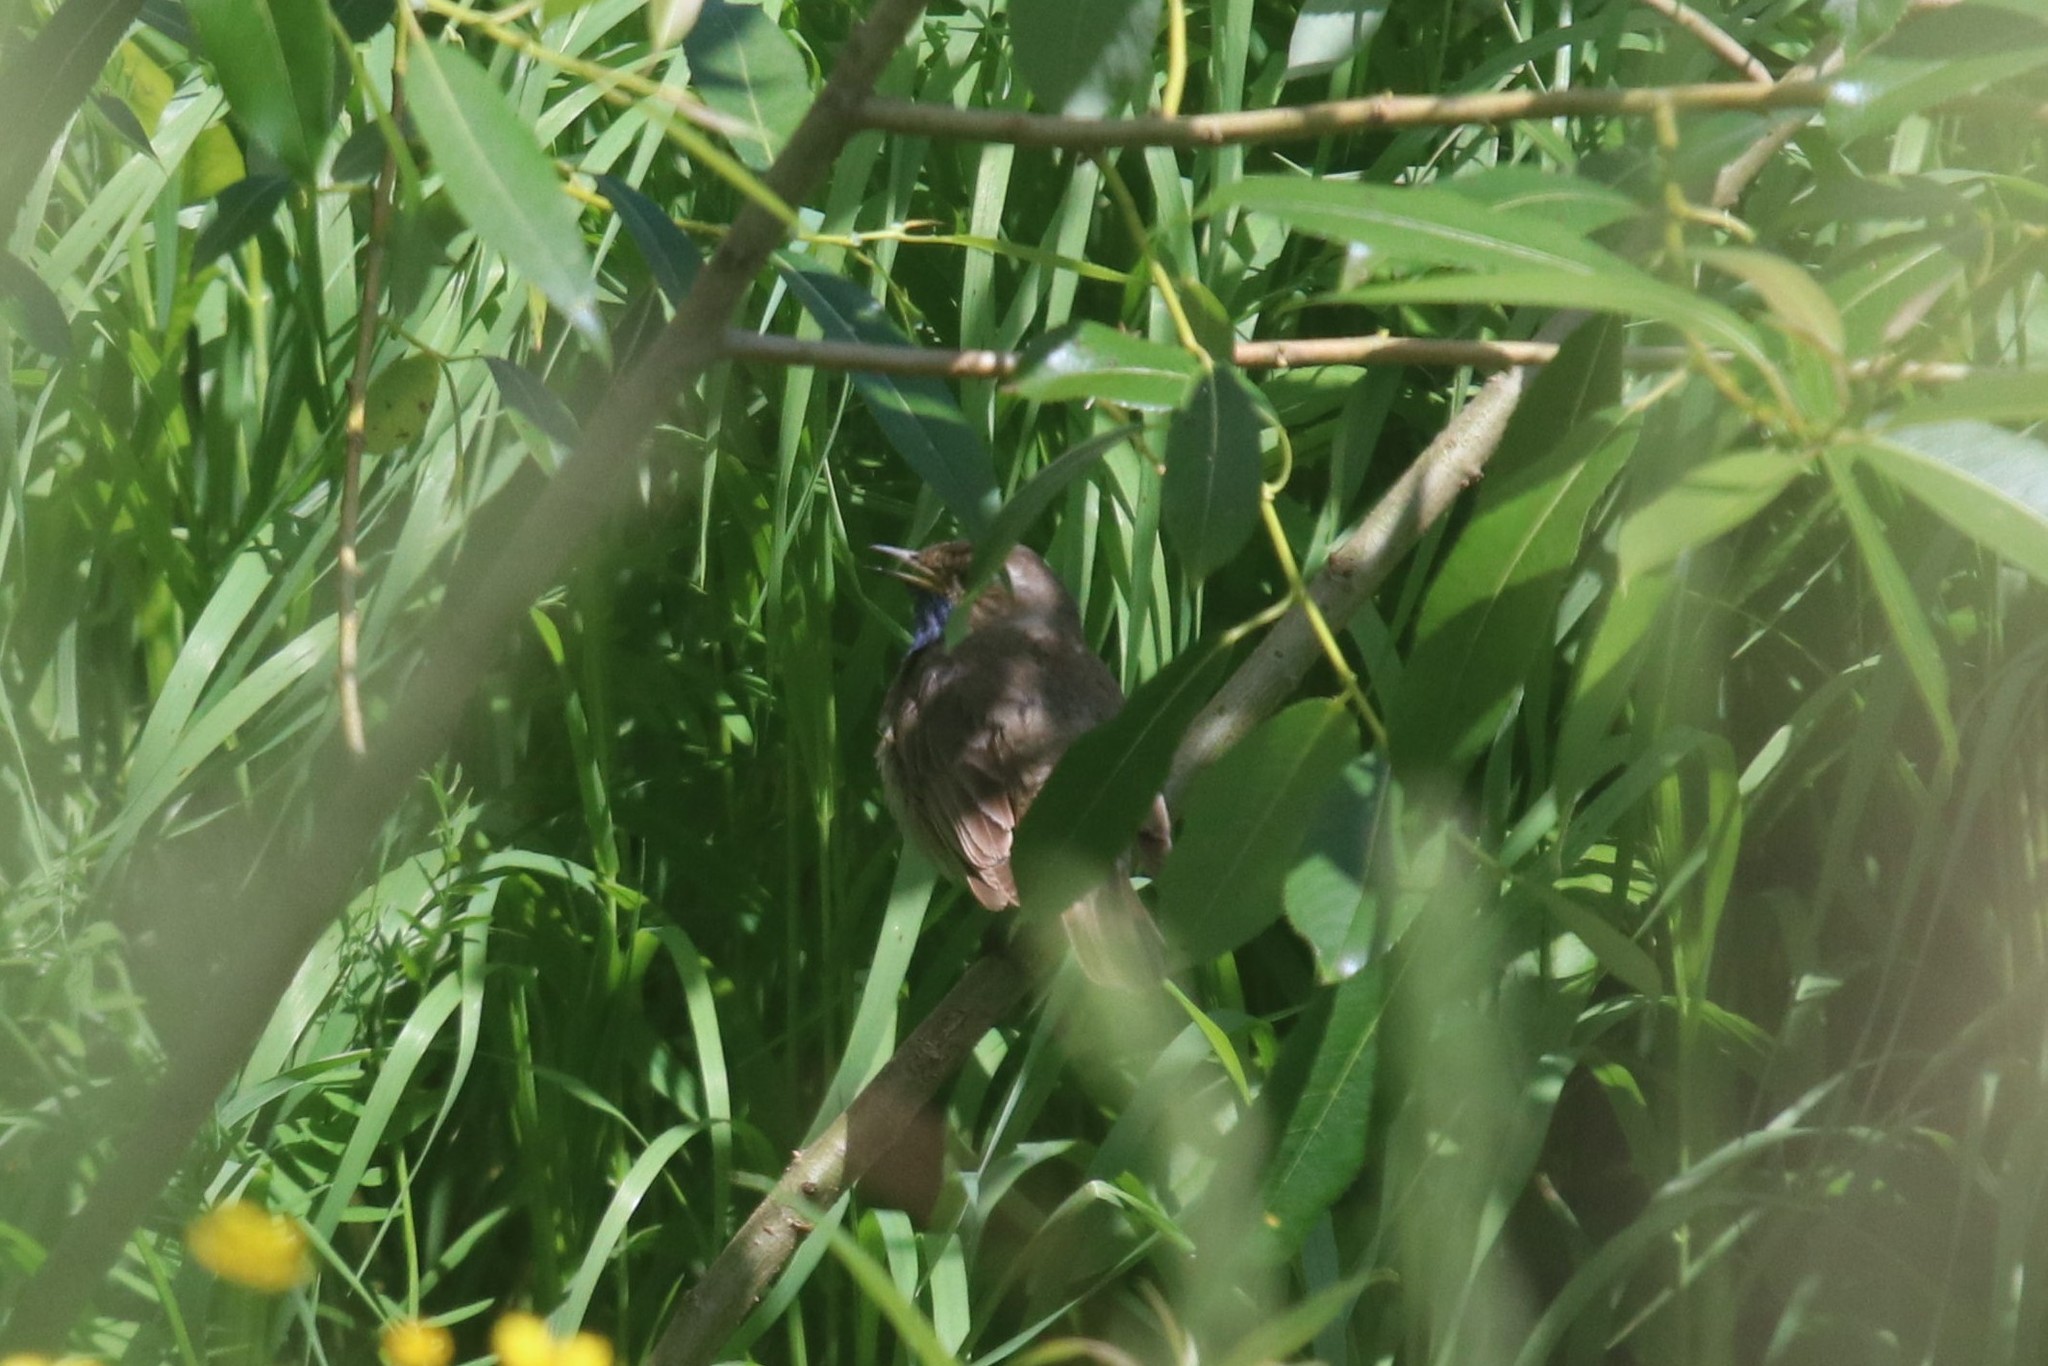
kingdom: Animalia
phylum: Chordata
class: Aves
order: Passeriformes
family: Muscicapidae
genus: Luscinia
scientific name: Luscinia svecica
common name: Bluethroat
